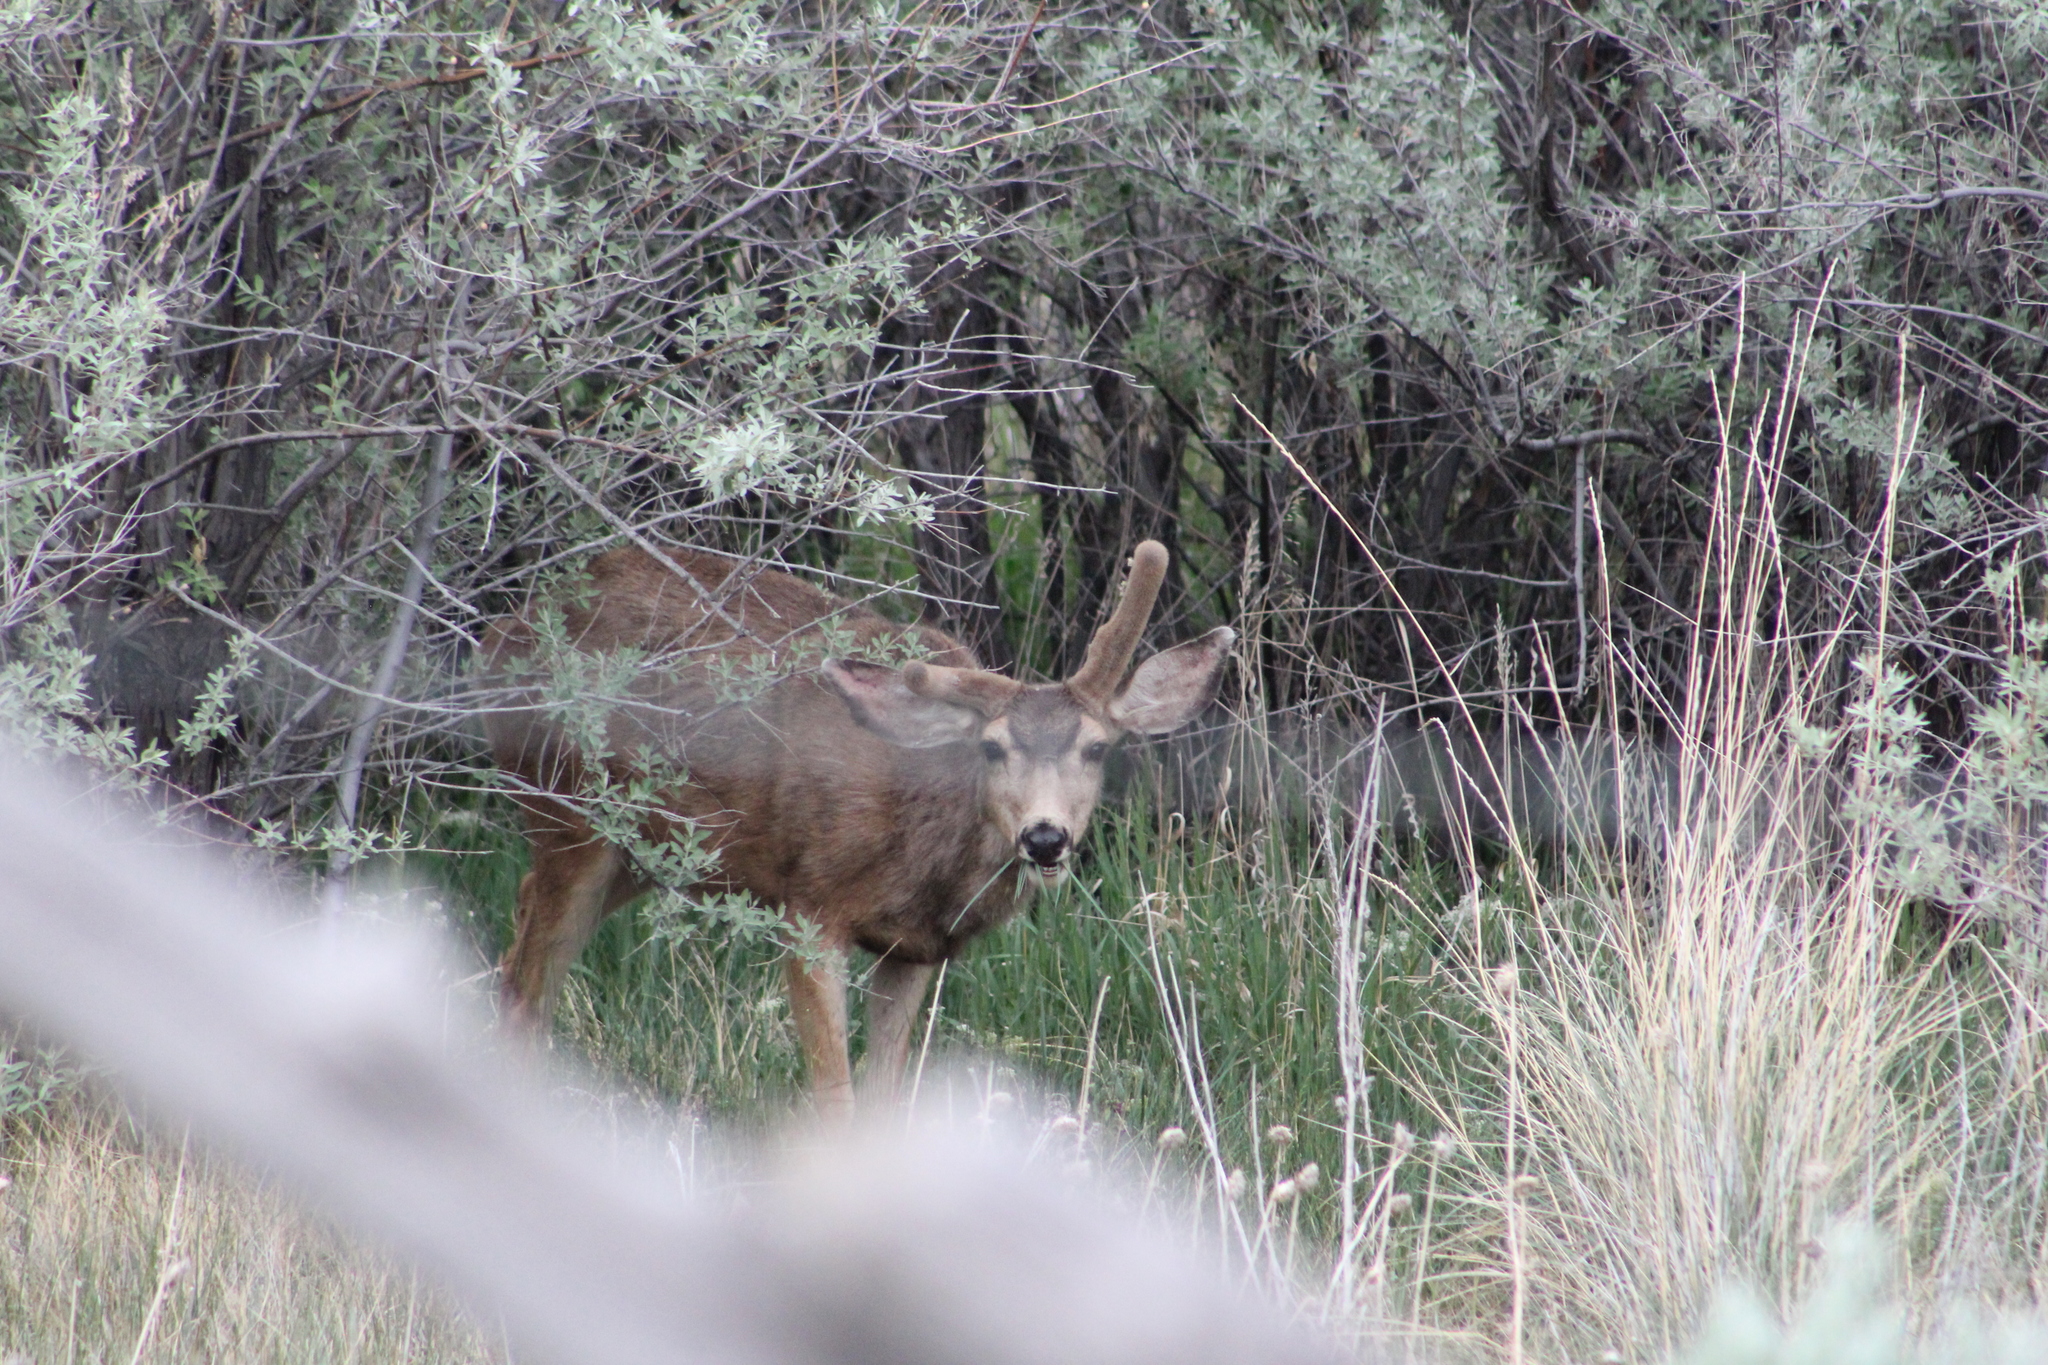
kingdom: Animalia
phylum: Chordata
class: Mammalia
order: Artiodactyla
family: Cervidae
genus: Odocoileus
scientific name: Odocoileus hemionus
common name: Mule deer
